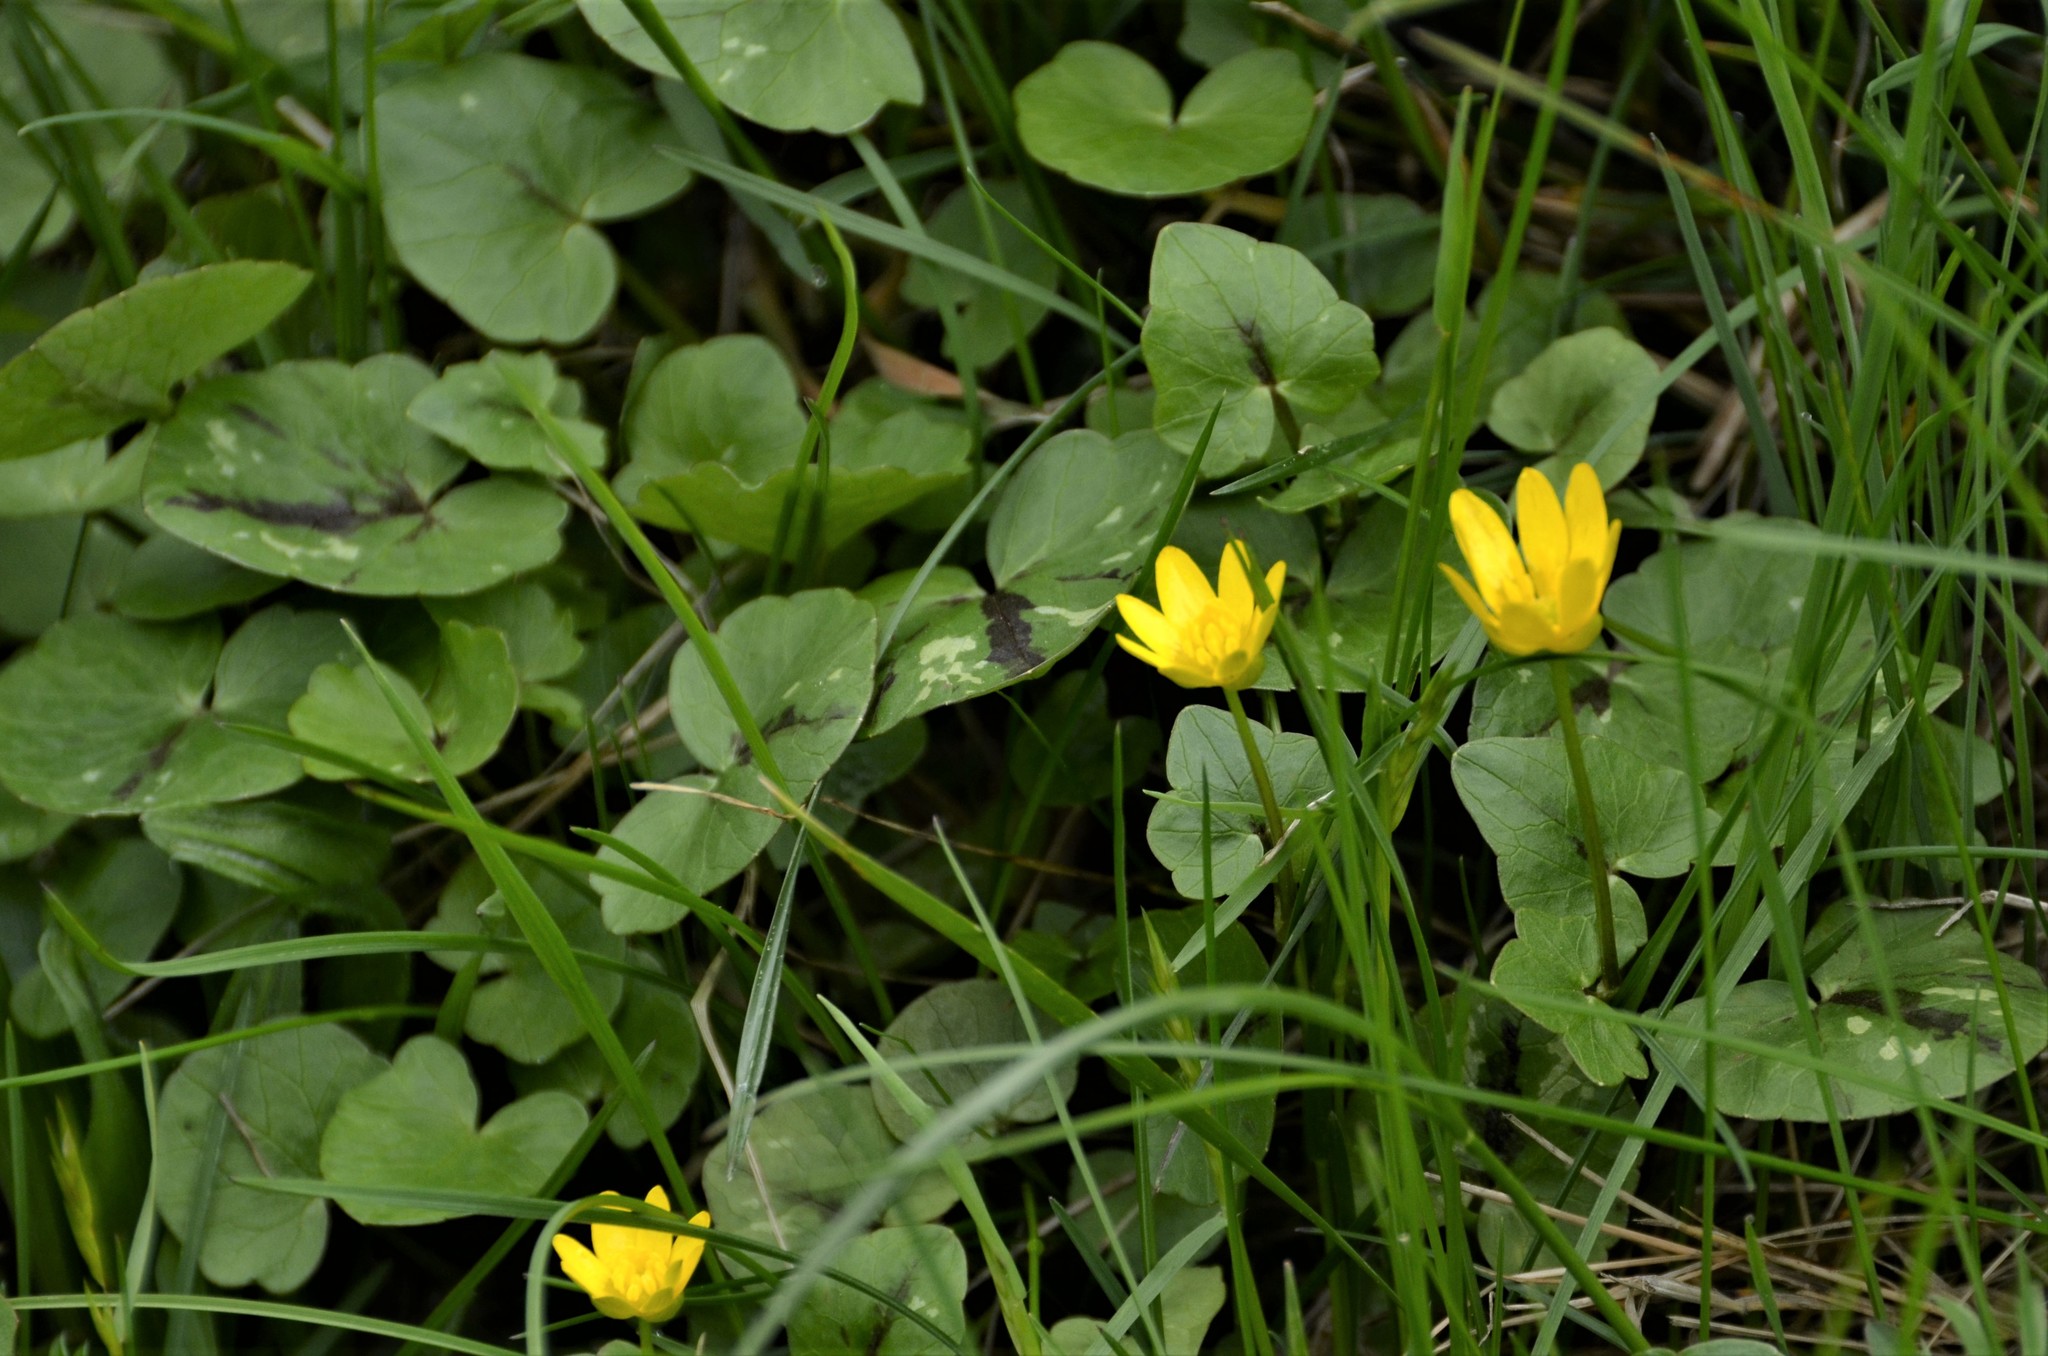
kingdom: Plantae
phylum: Tracheophyta
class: Magnoliopsida
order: Ranunculales
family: Ranunculaceae
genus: Ficaria
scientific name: Ficaria verna
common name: Lesser celandine
